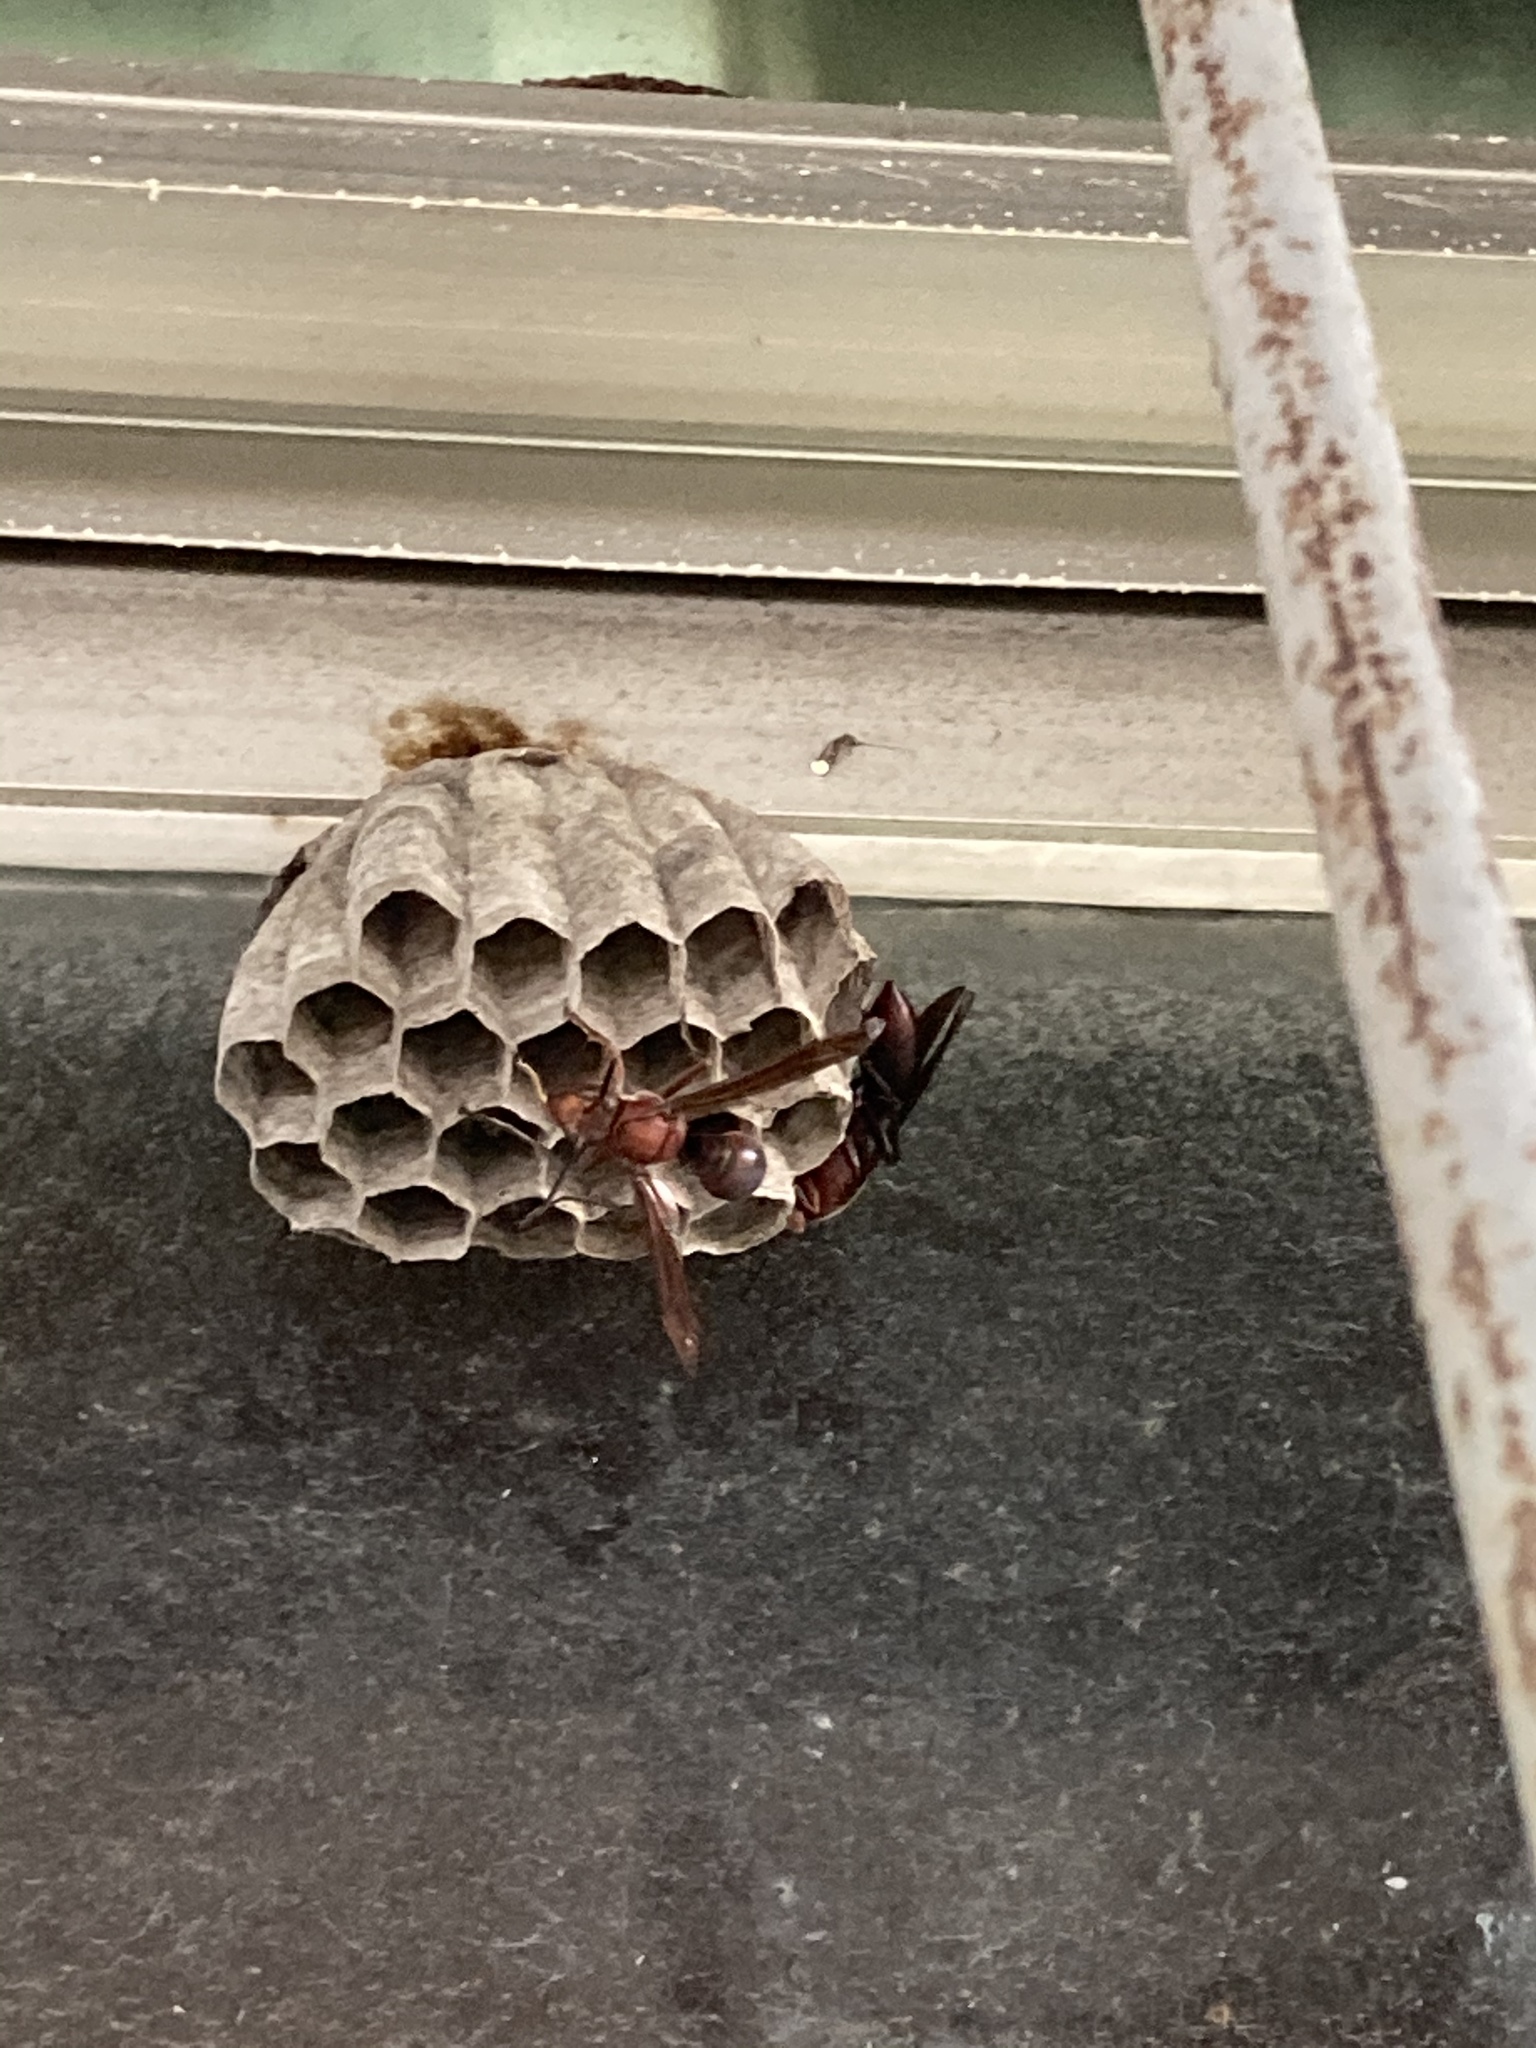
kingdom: Animalia
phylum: Arthropoda
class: Insecta
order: Hymenoptera
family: Eumenidae
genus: Polistes
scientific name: Polistes tenebricosus
